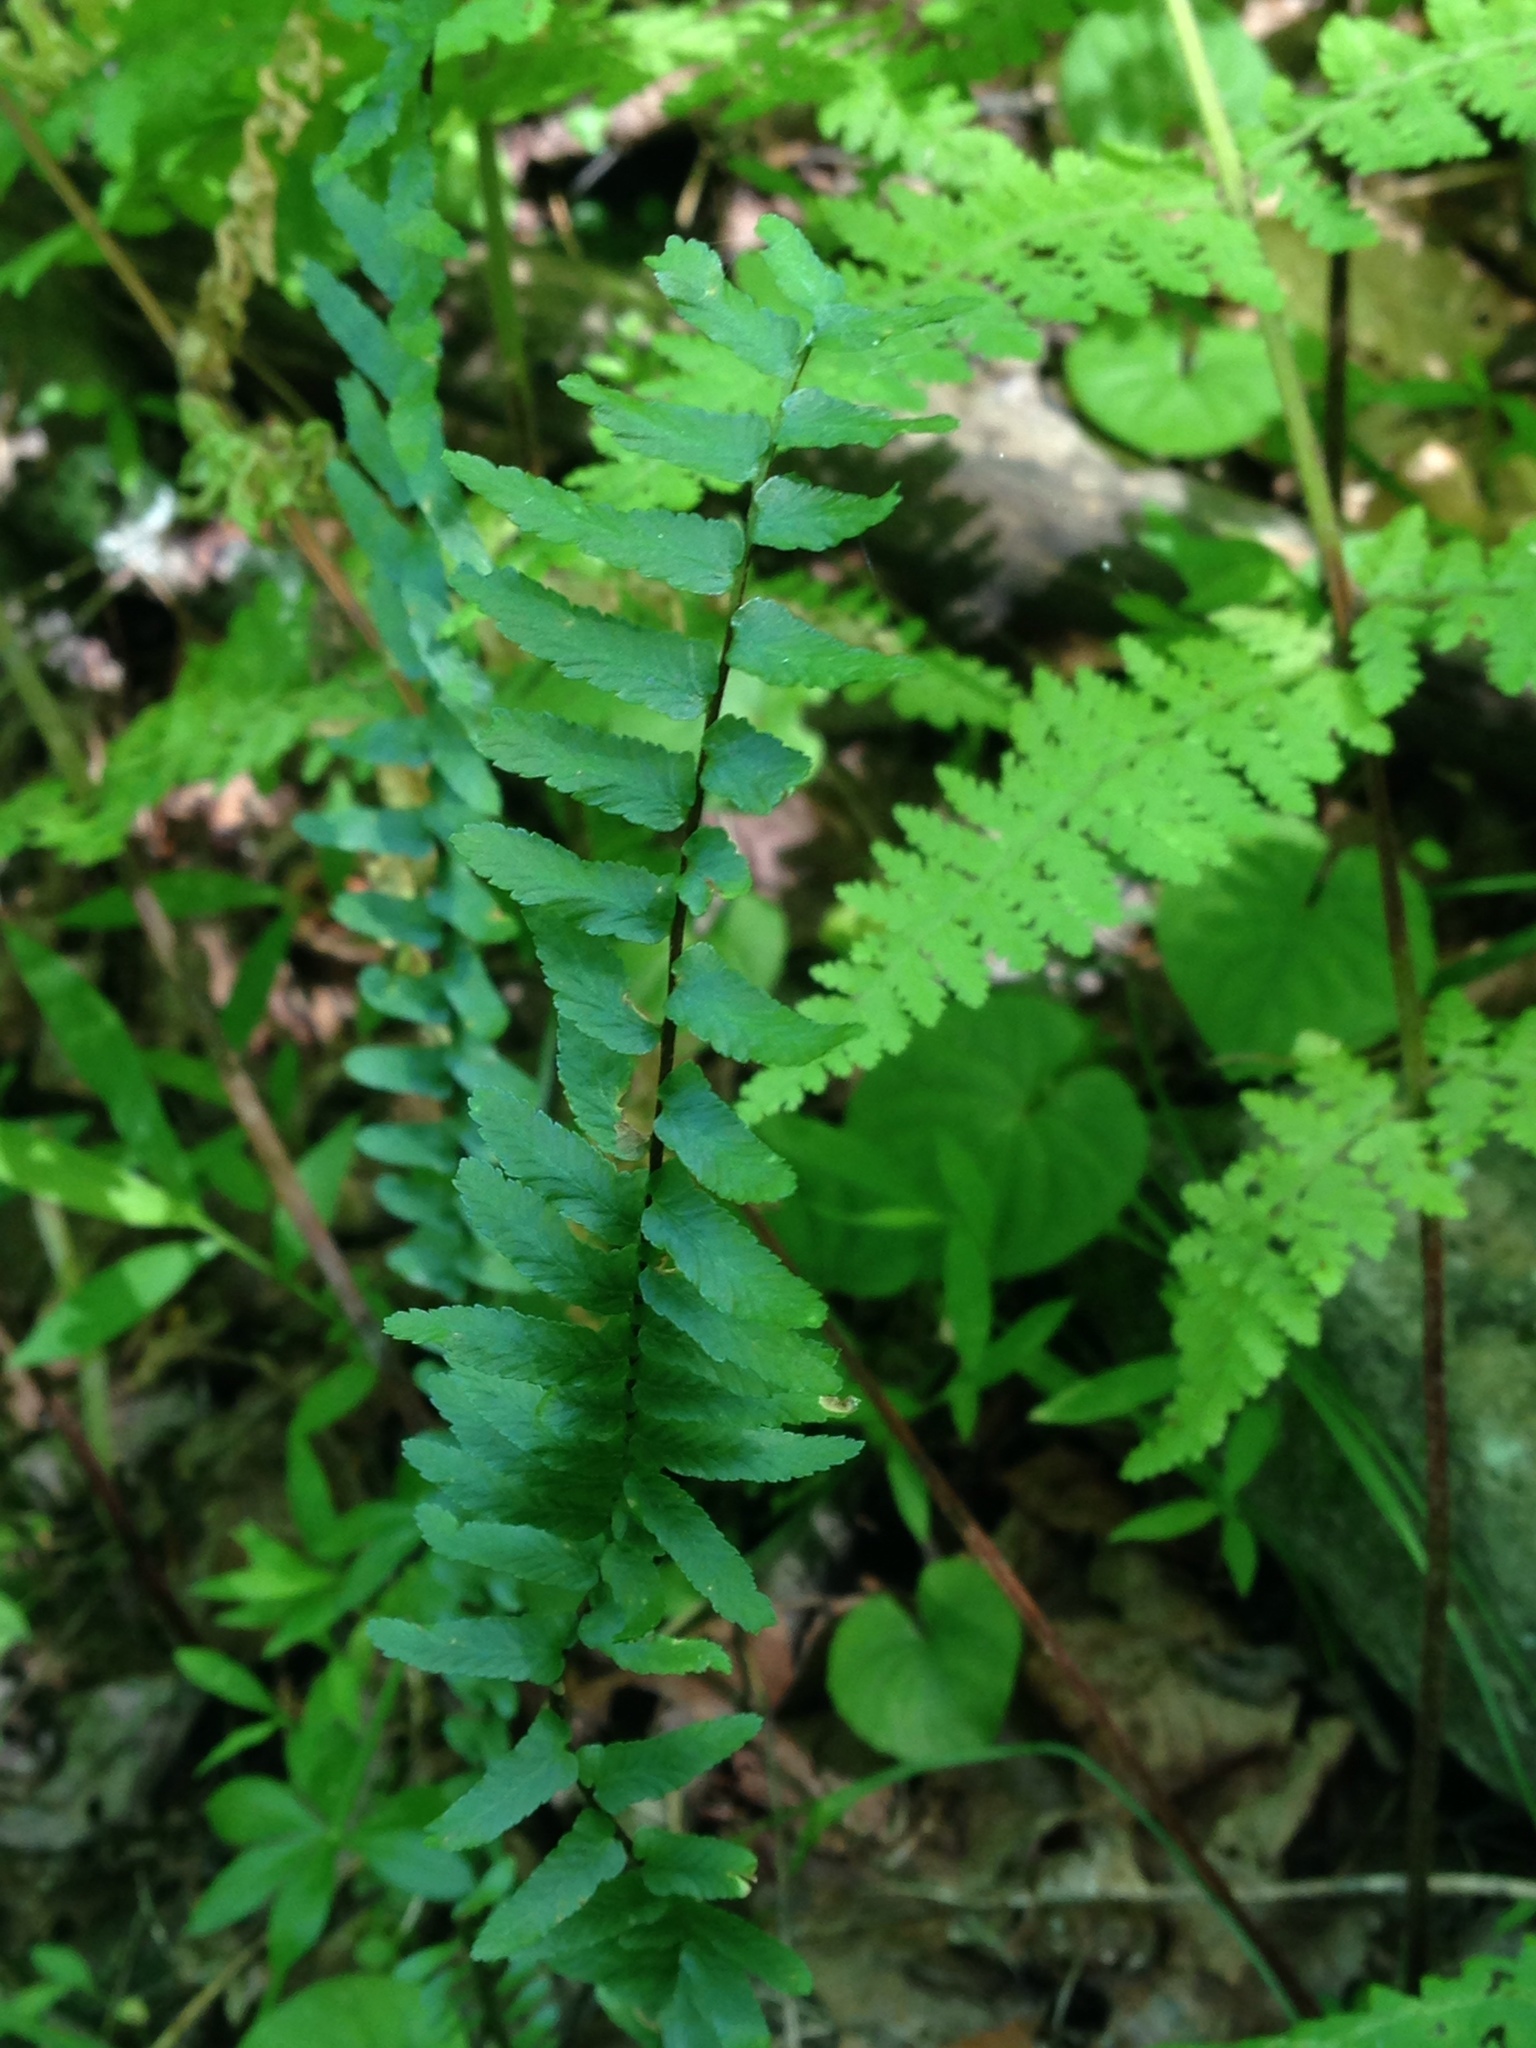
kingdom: Plantae
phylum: Tracheophyta
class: Polypodiopsida
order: Polypodiales
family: Aspleniaceae
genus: Asplenium
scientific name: Asplenium platyneuron
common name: Ebony spleenwort
